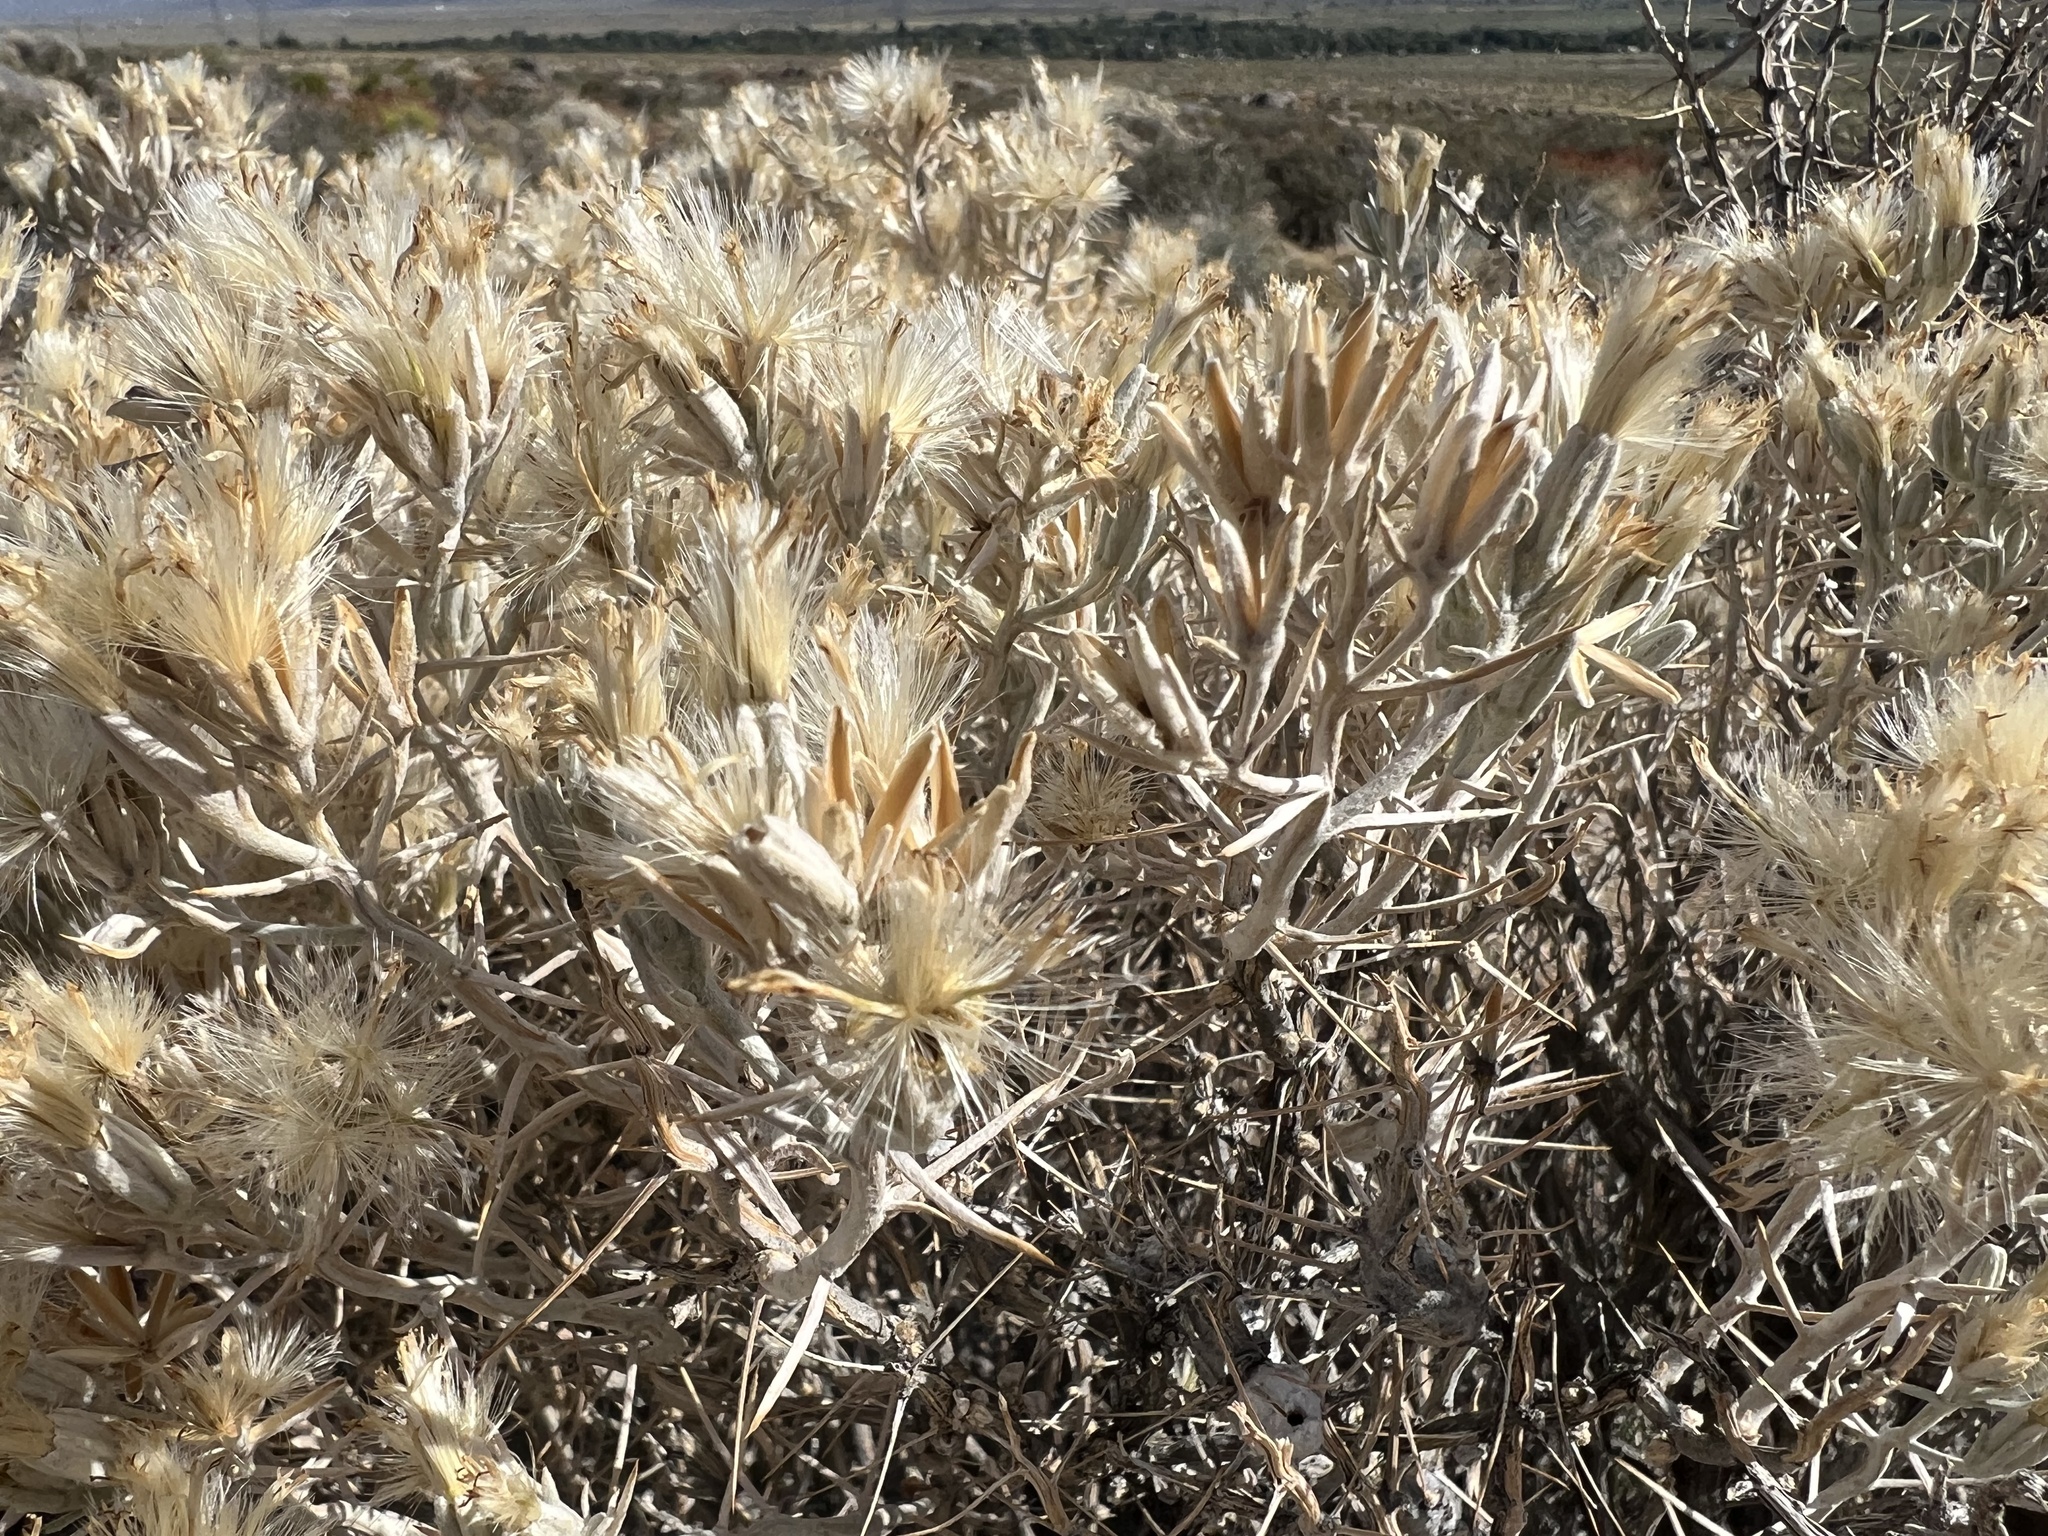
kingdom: Plantae
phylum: Tracheophyta
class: Magnoliopsida
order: Asterales
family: Asteraceae
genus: Tetradymia
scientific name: Tetradymia stenolepis
